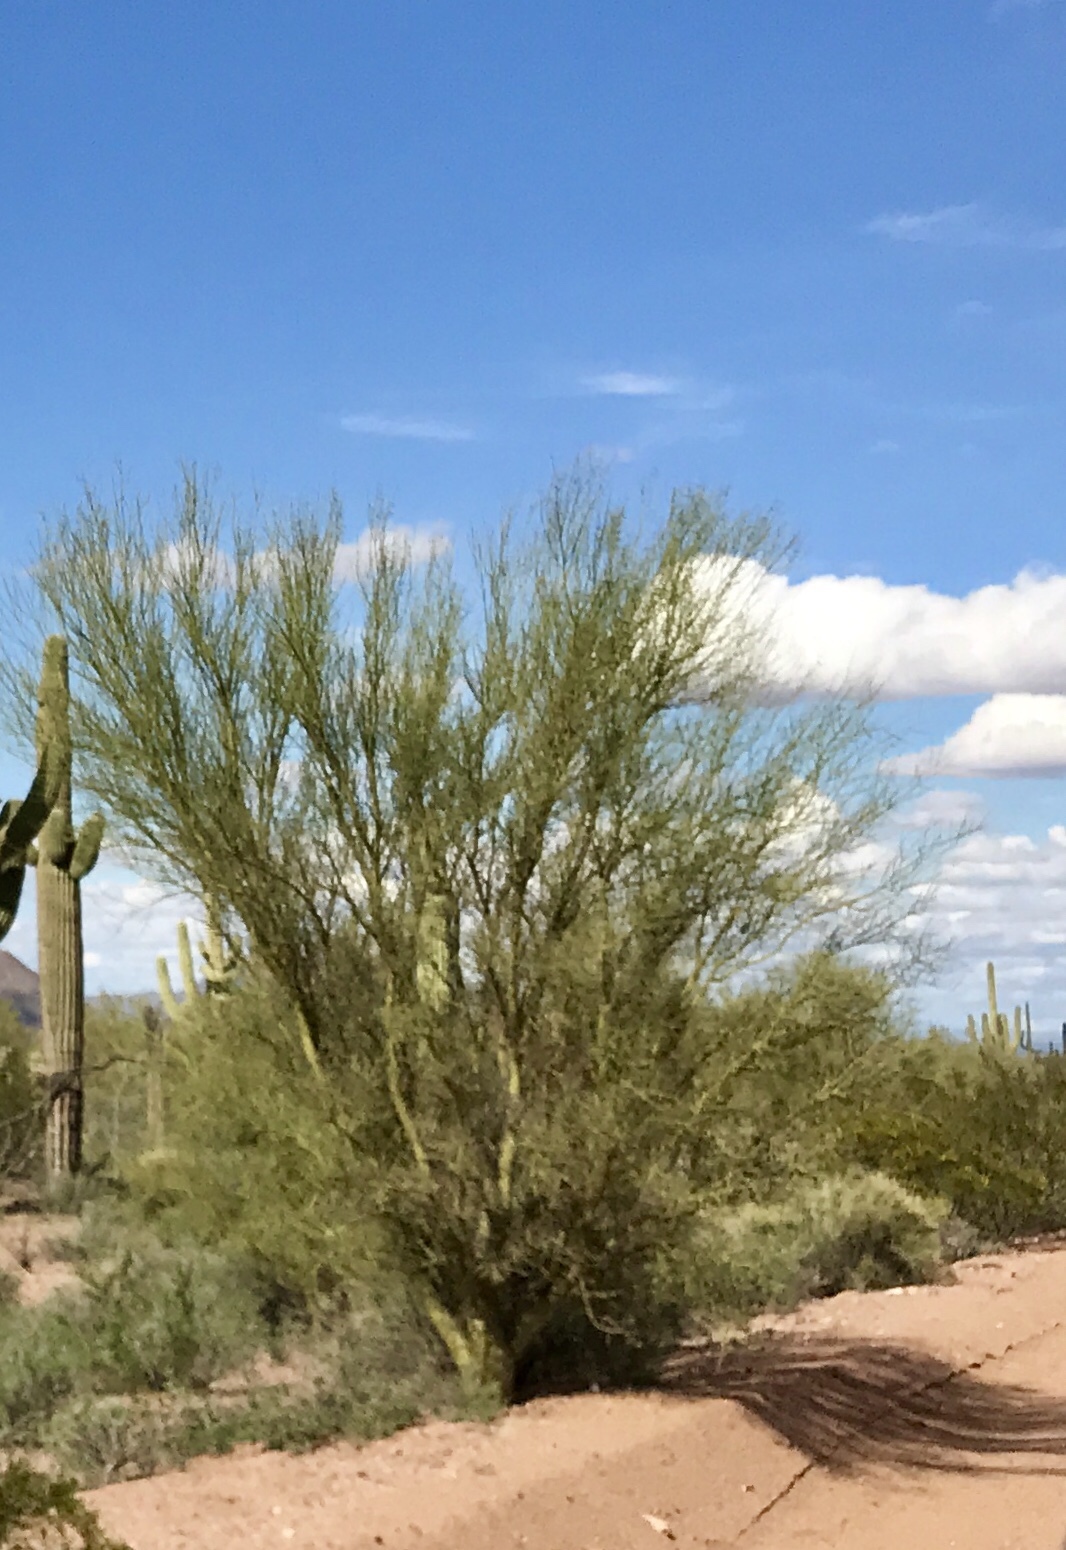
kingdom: Plantae
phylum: Tracheophyta
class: Magnoliopsida
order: Fabales
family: Fabaceae
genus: Parkinsonia
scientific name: Parkinsonia microphylla
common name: Yellow paloverde
